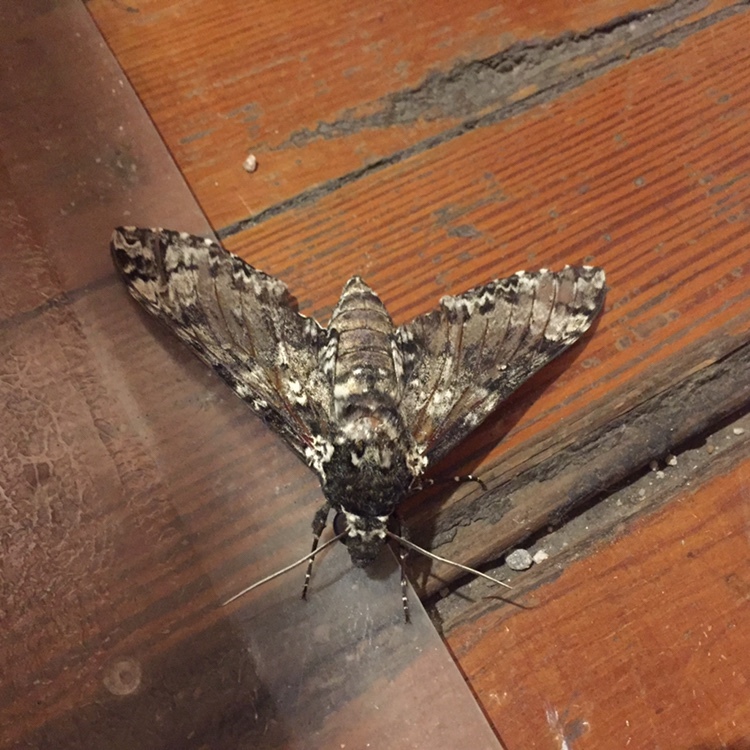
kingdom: Animalia
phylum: Arthropoda
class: Insecta
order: Lepidoptera
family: Sphingidae
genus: Manduca
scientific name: Manduca rustica
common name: Rustic sphinx
